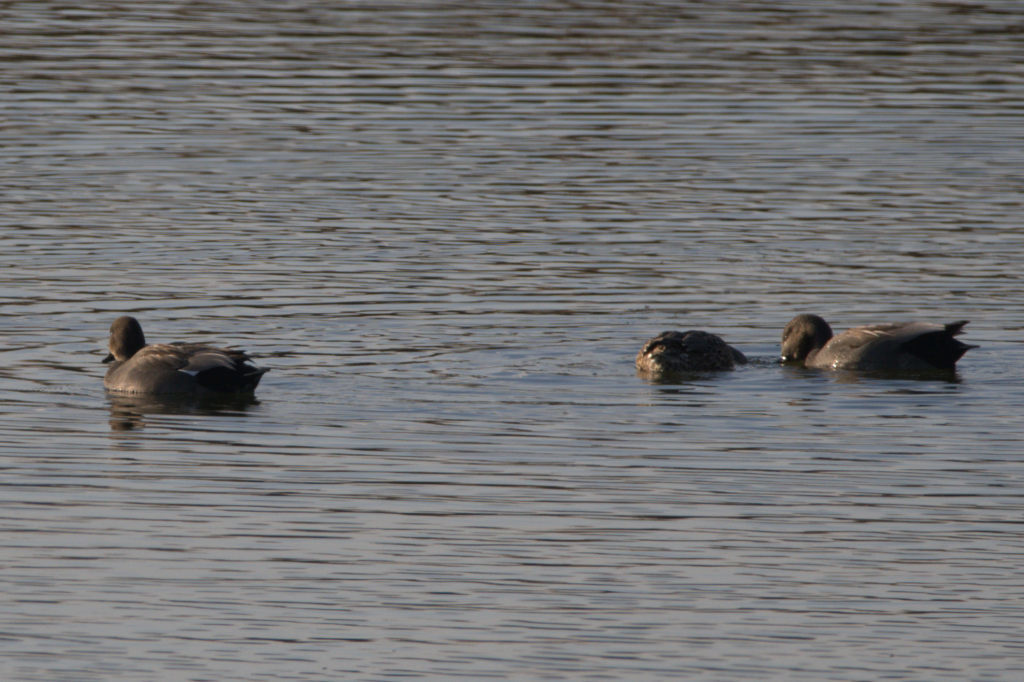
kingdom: Animalia
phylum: Chordata
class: Aves
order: Anseriformes
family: Anatidae
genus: Mareca
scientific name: Mareca strepera
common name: Gadwall
